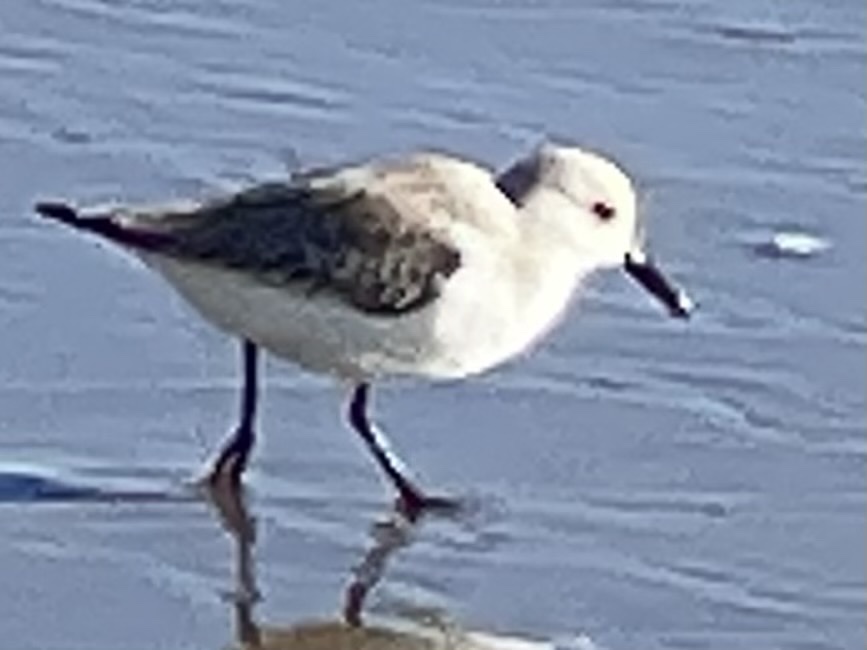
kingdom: Animalia
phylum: Chordata
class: Aves
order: Charadriiformes
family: Scolopacidae
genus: Calidris
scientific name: Calidris alba
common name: Sanderling
